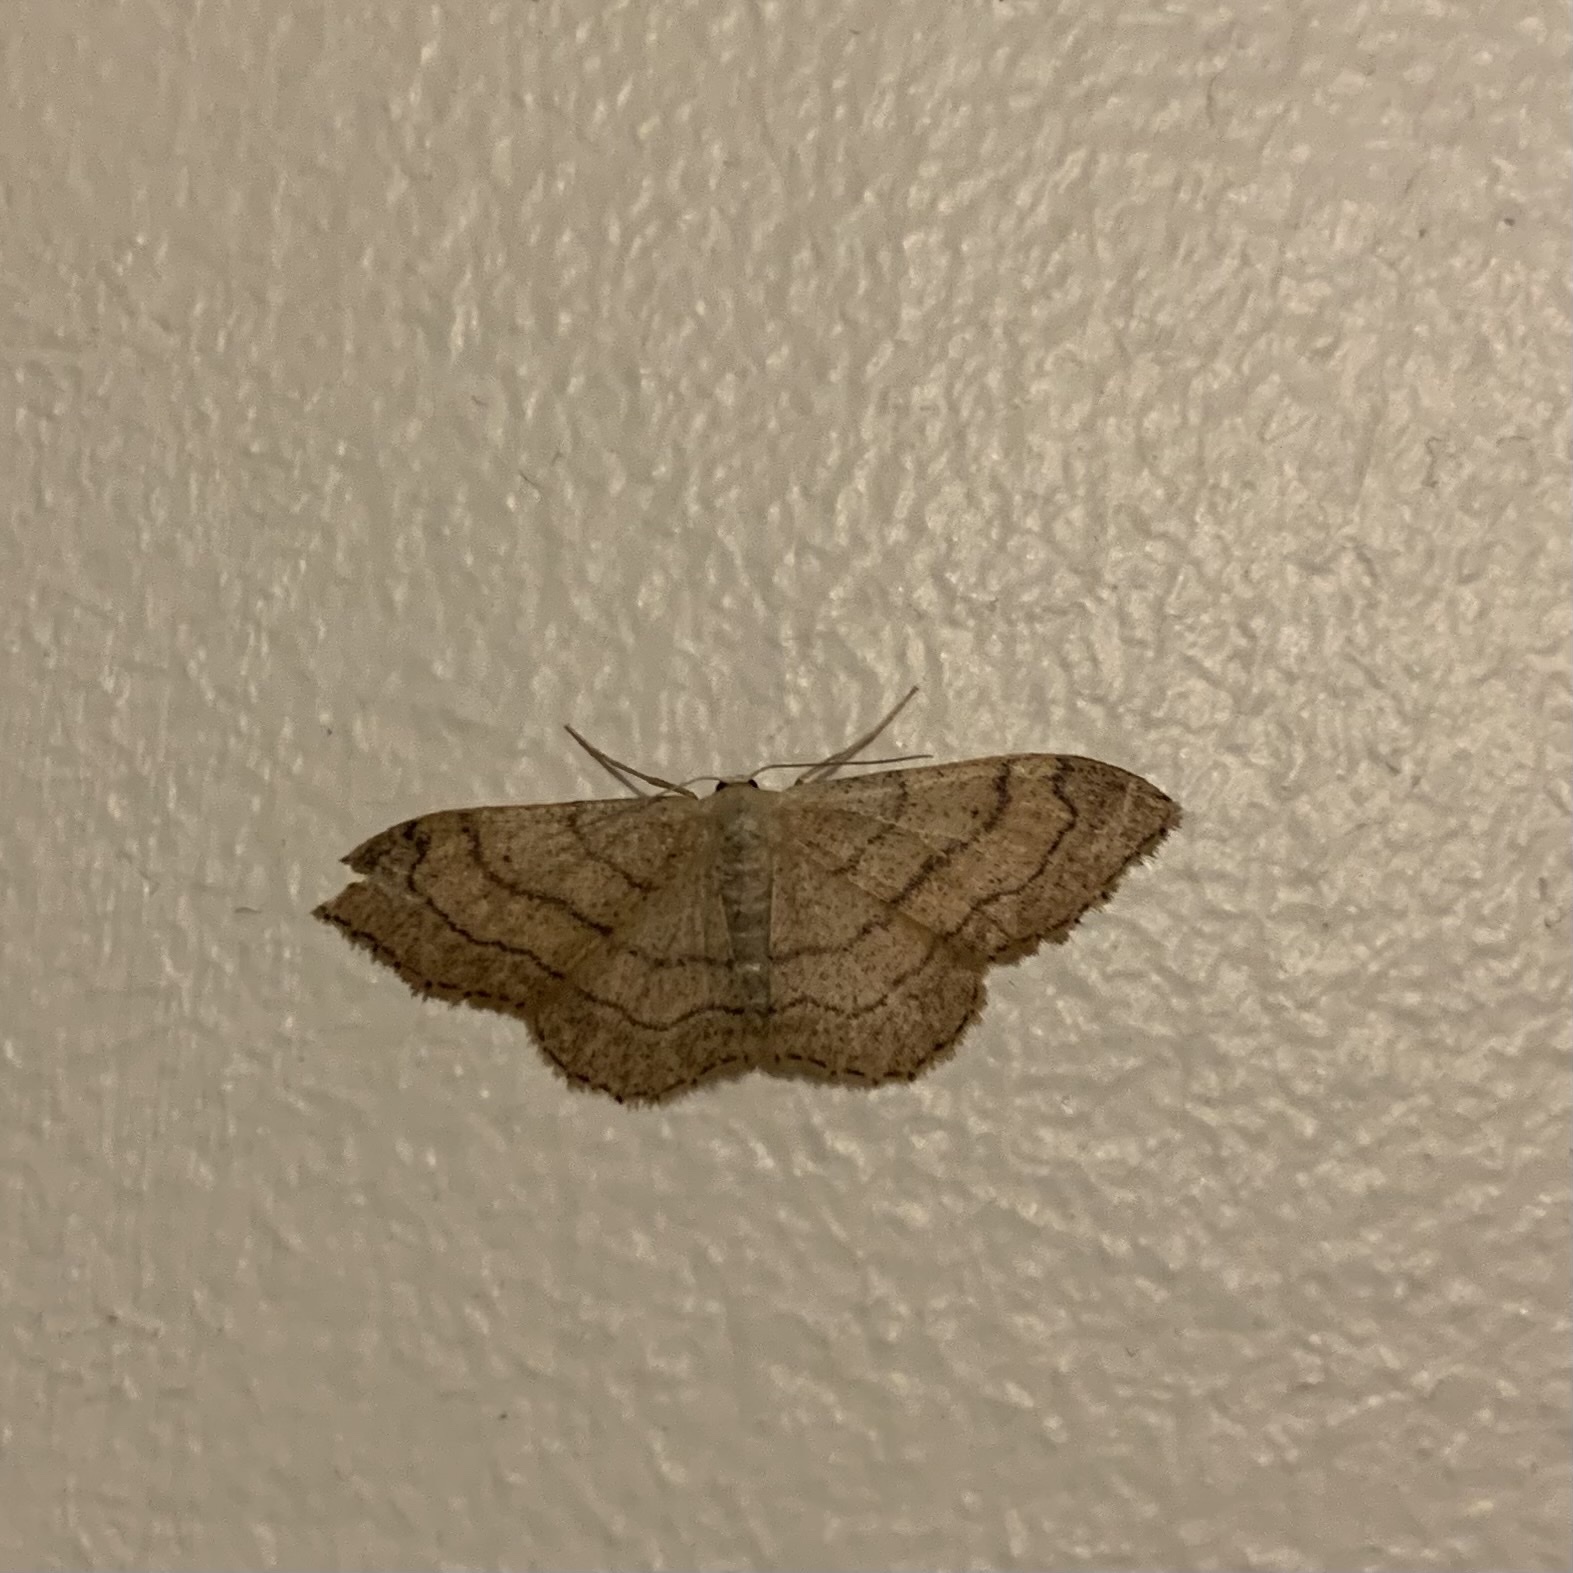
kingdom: Animalia
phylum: Arthropoda
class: Insecta
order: Lepidoptera
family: Geometridae
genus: Idaea
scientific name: Idaea aversata
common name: Riband wave
